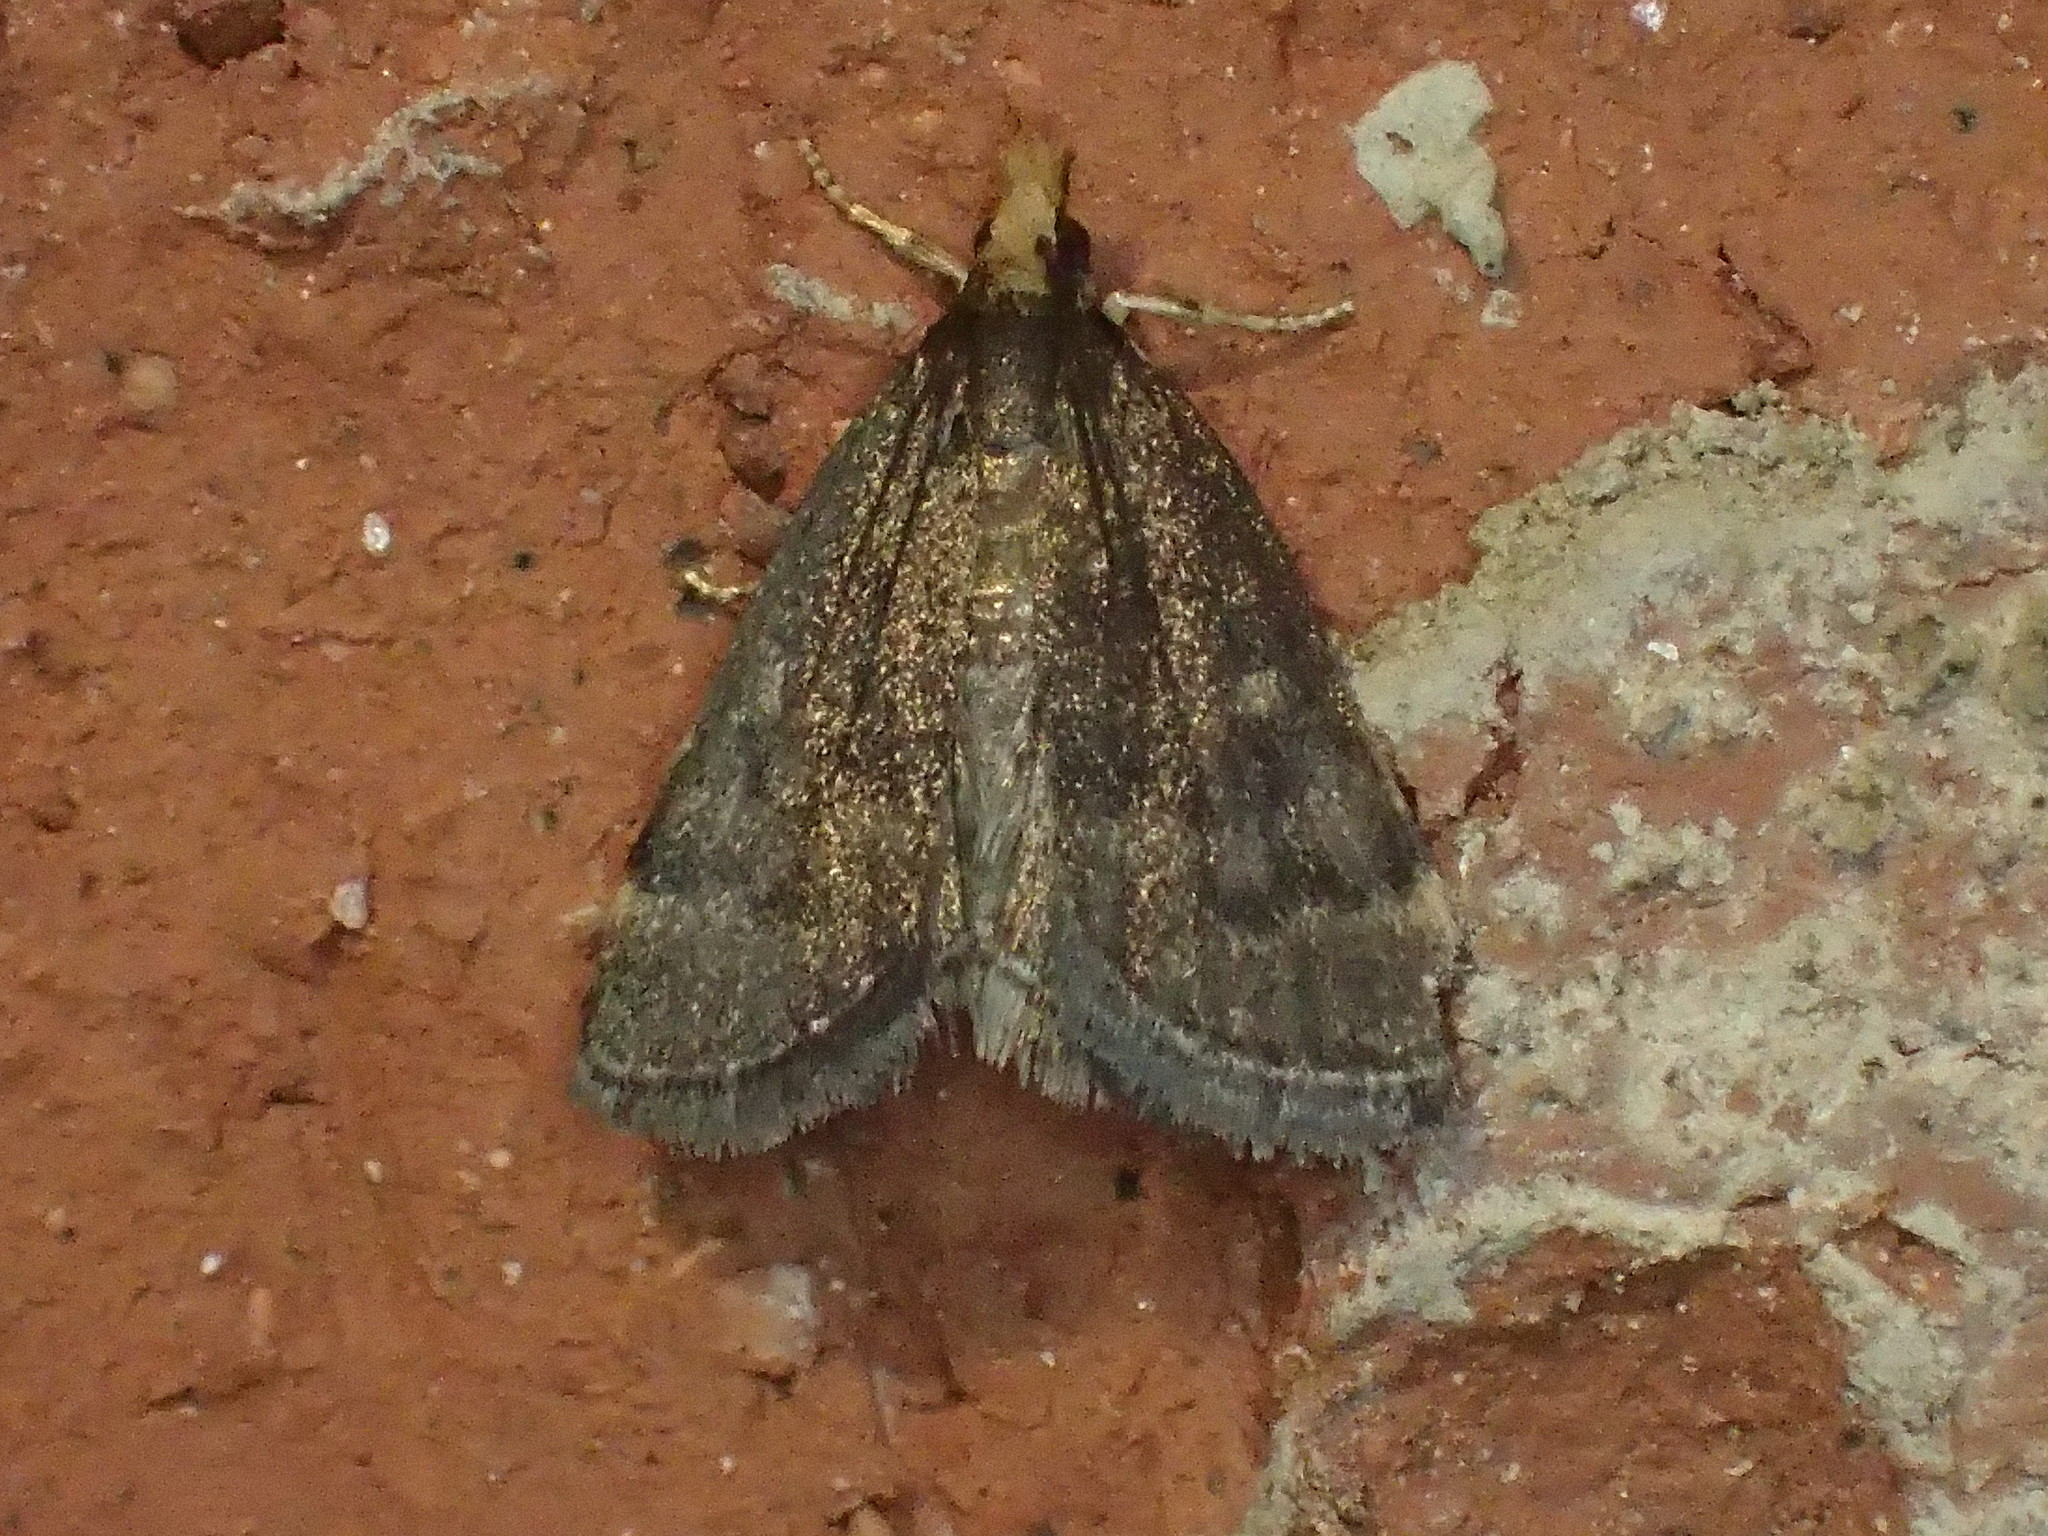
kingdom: Animalia
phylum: Arthropoda
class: Insecta
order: Lepidoptera
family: Crambidae
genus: Pyrausta
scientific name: Pyrausta merrickalis
